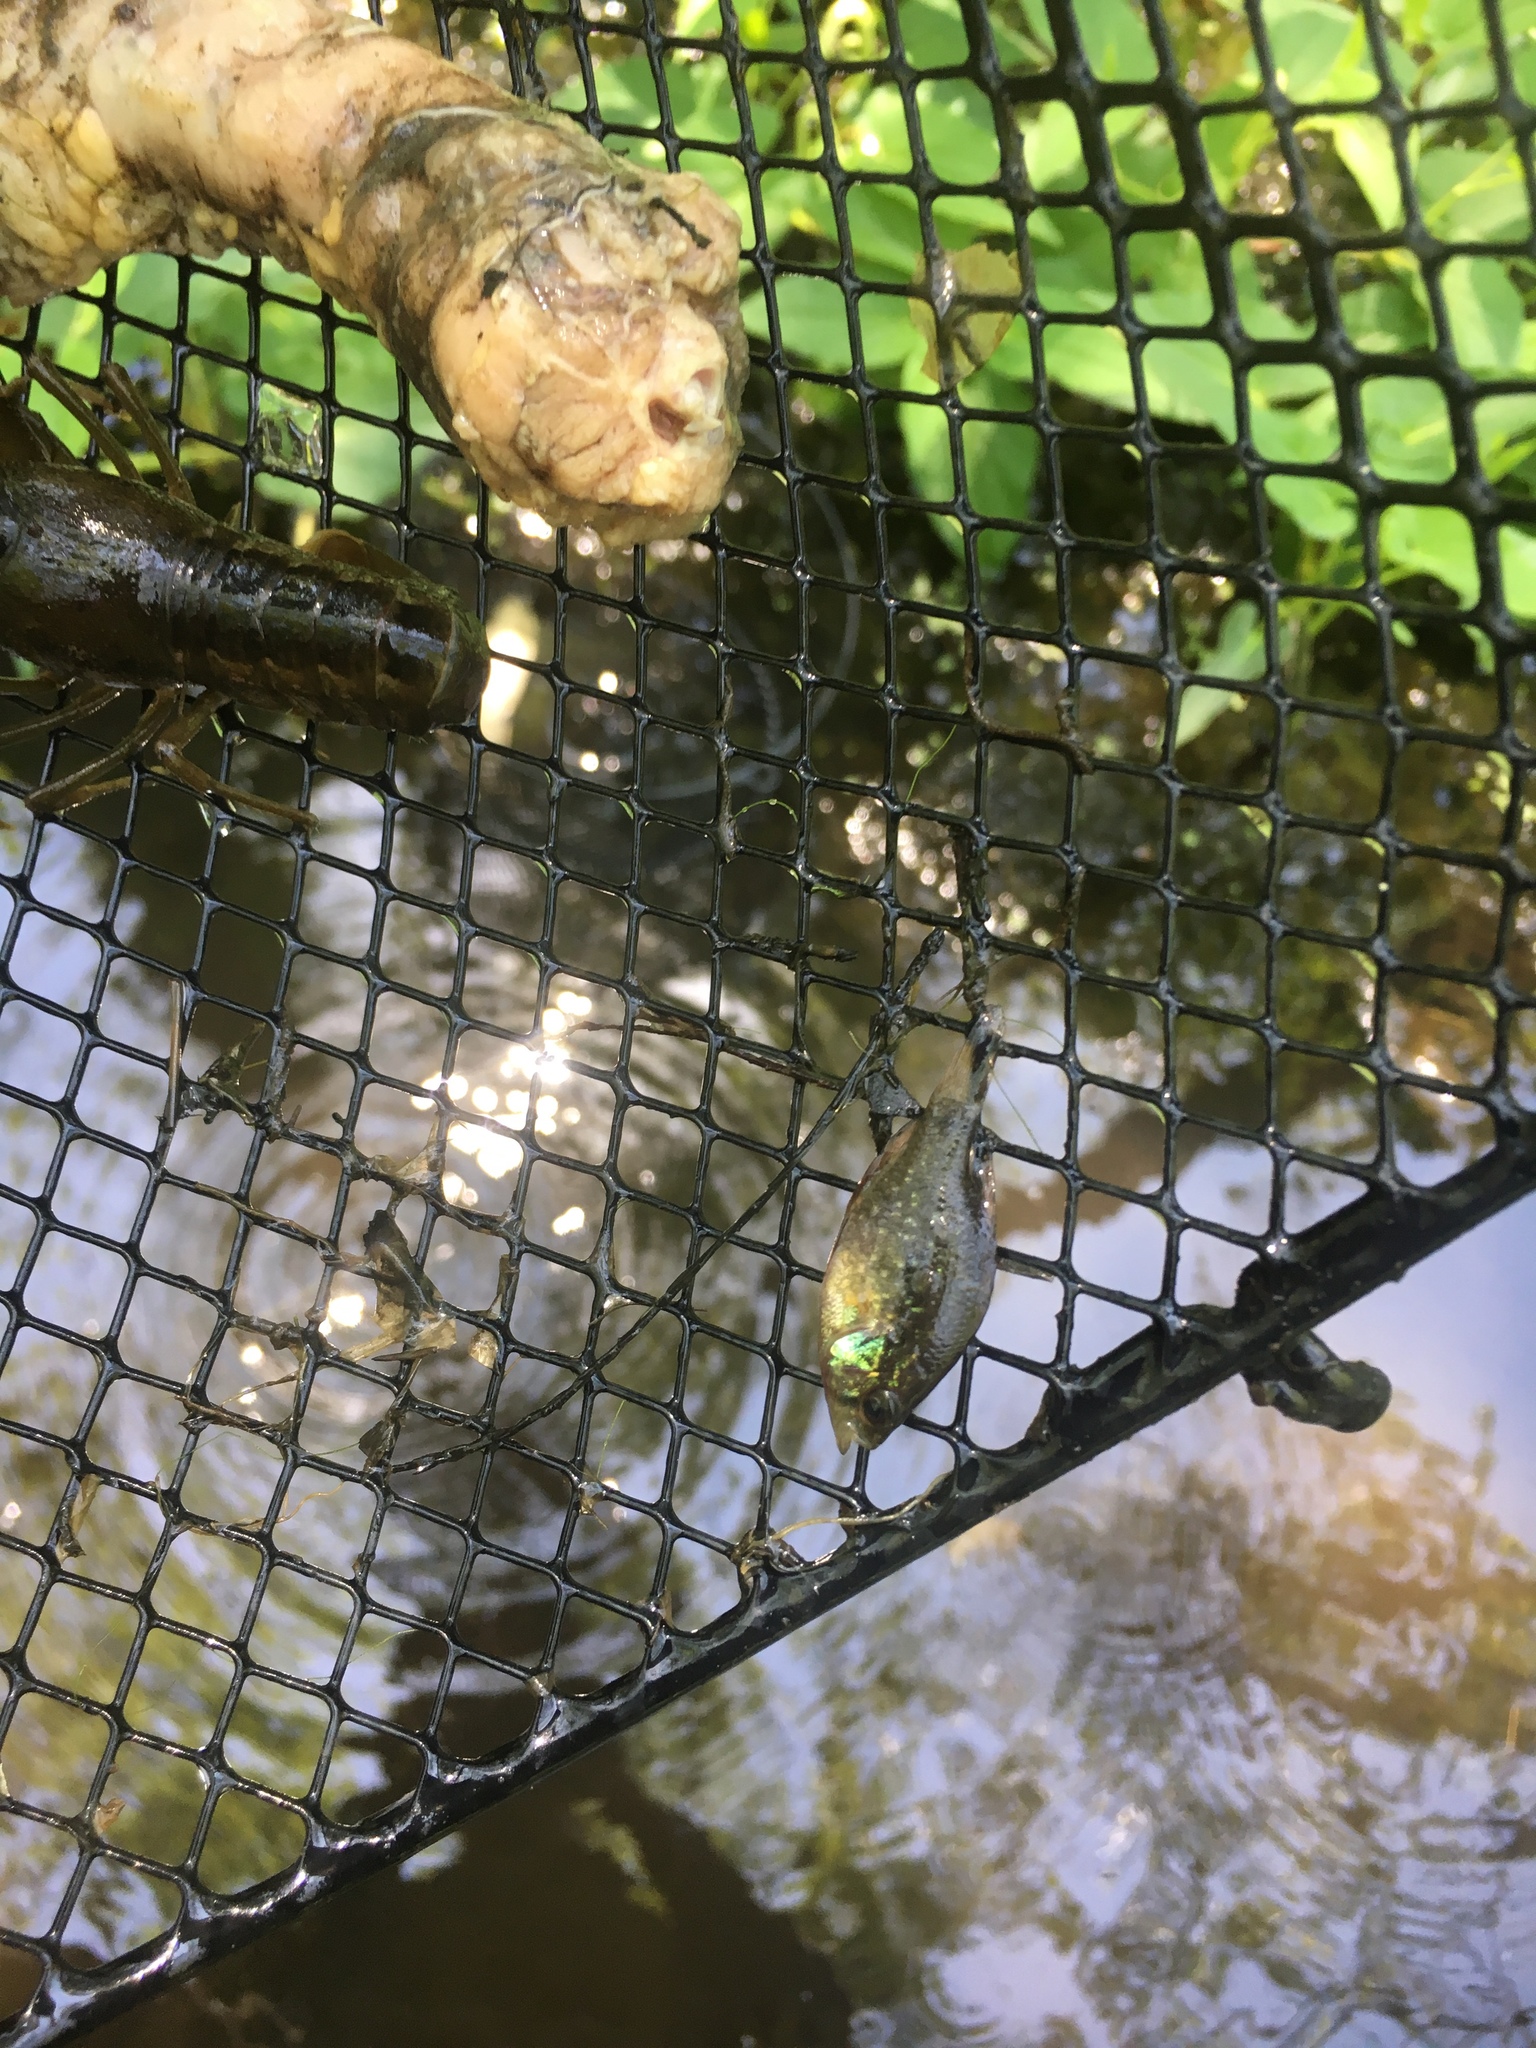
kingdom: Animalia
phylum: Chordata
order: Perciformes
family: Centrarchidae
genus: Enneacanthus
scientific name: Enneacanthus obesus
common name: Banded sunfish
